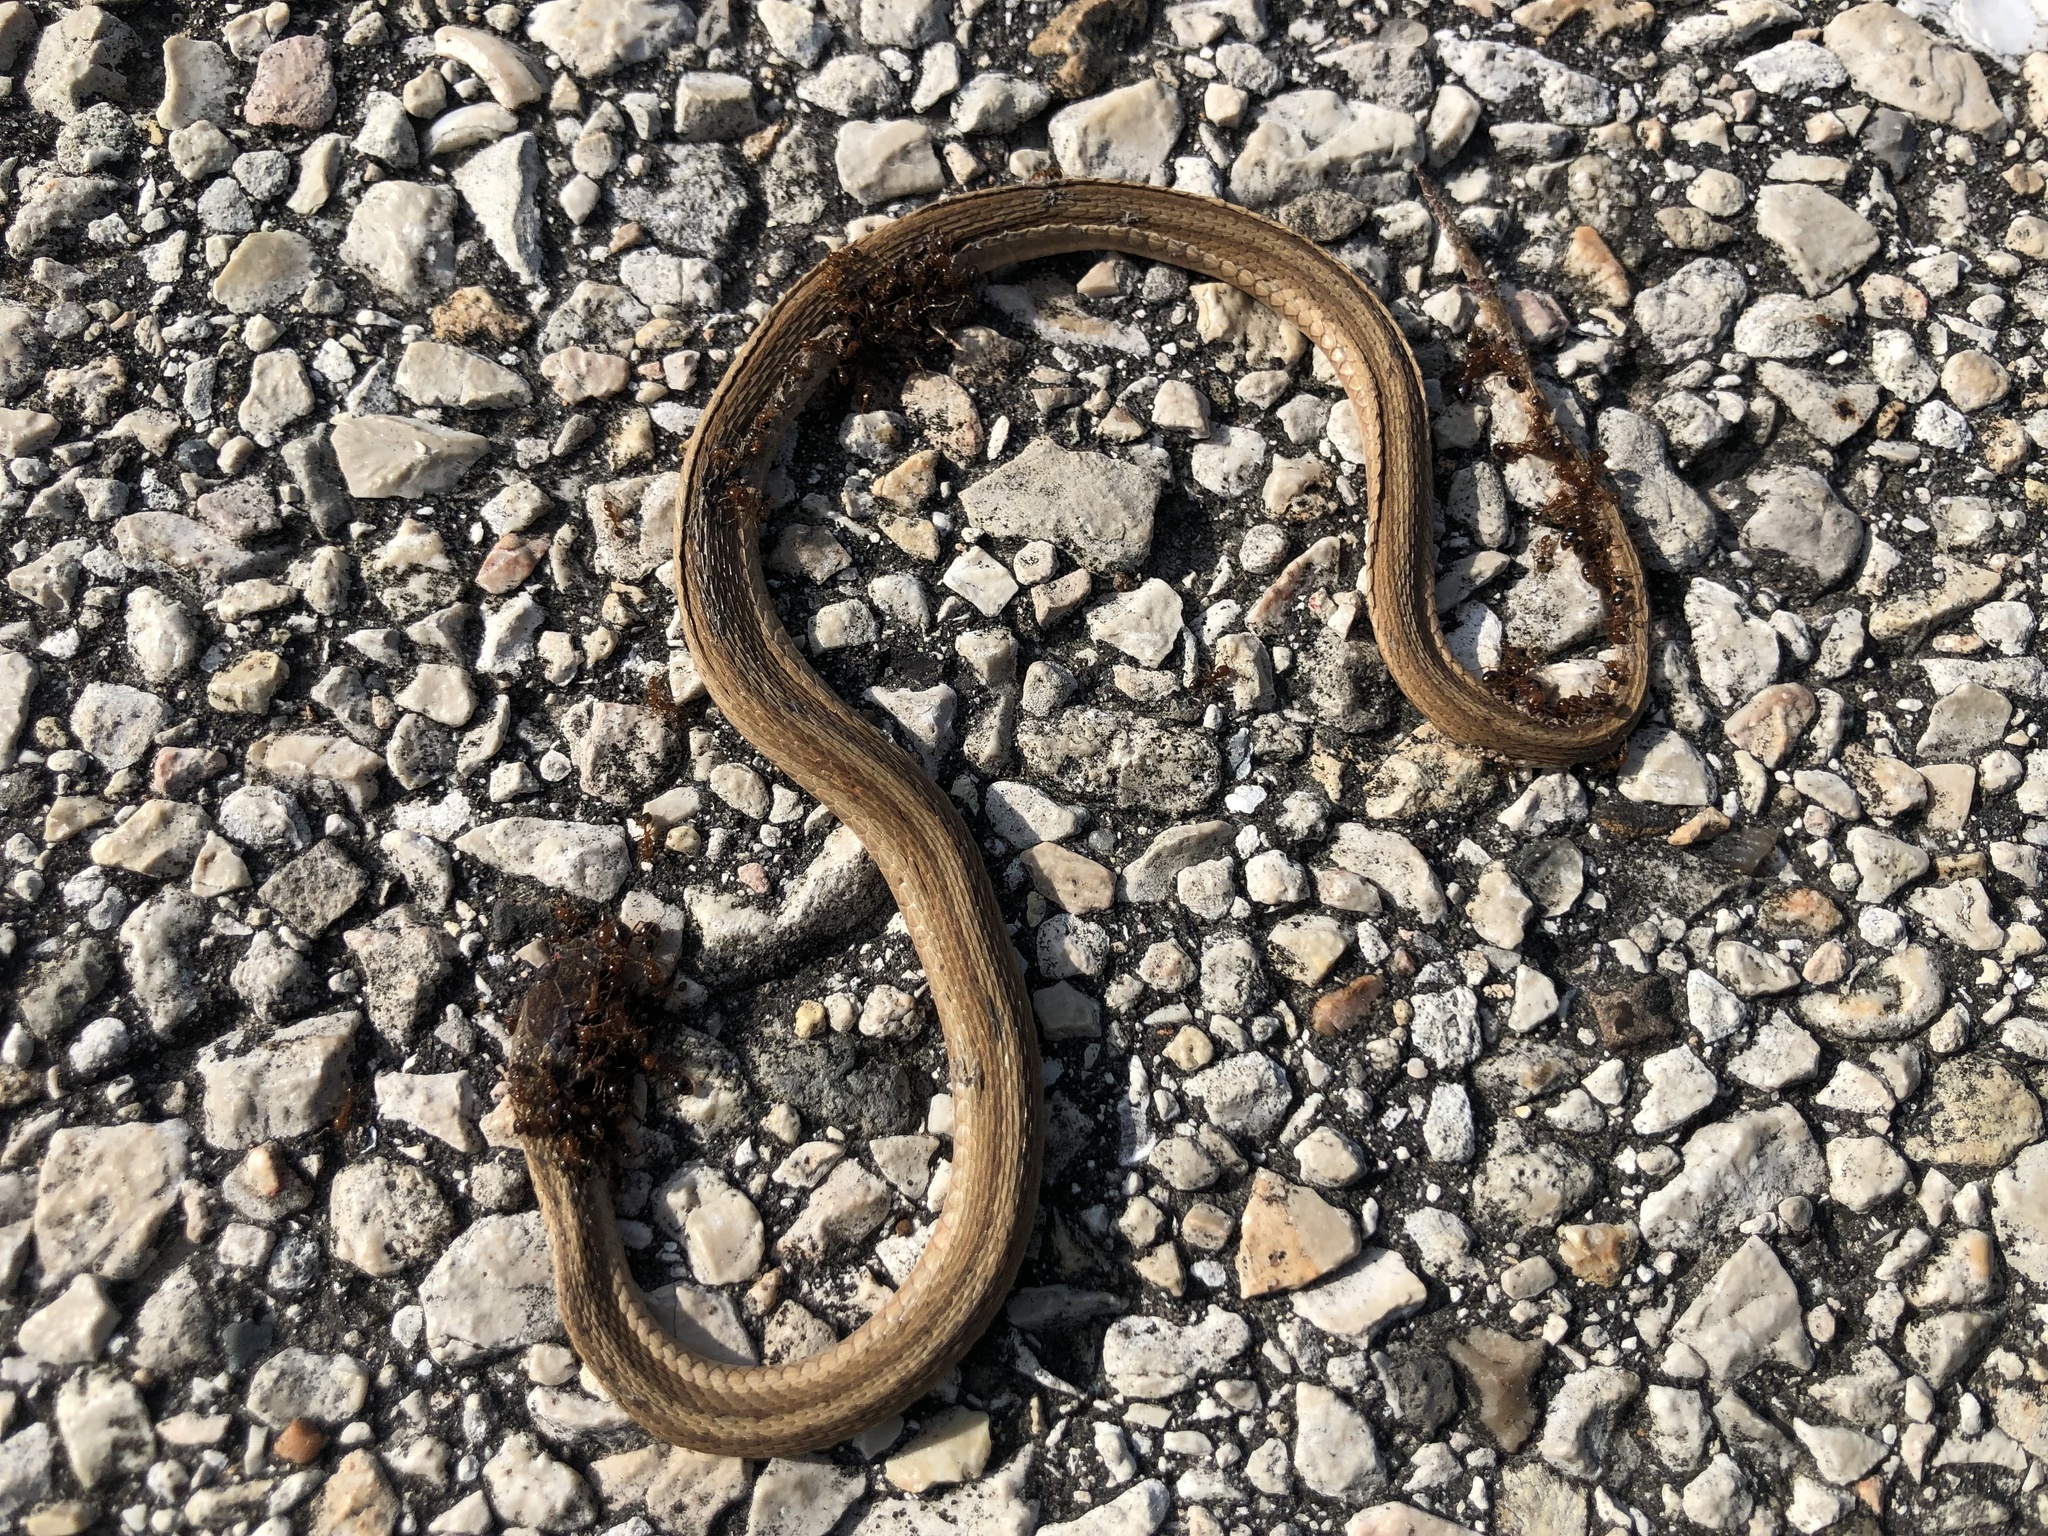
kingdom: Animalia
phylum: Chordata
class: Squamata
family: Colubridae
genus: Storeria
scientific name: Storeria dekayi
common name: (dekay’s) brown snake
